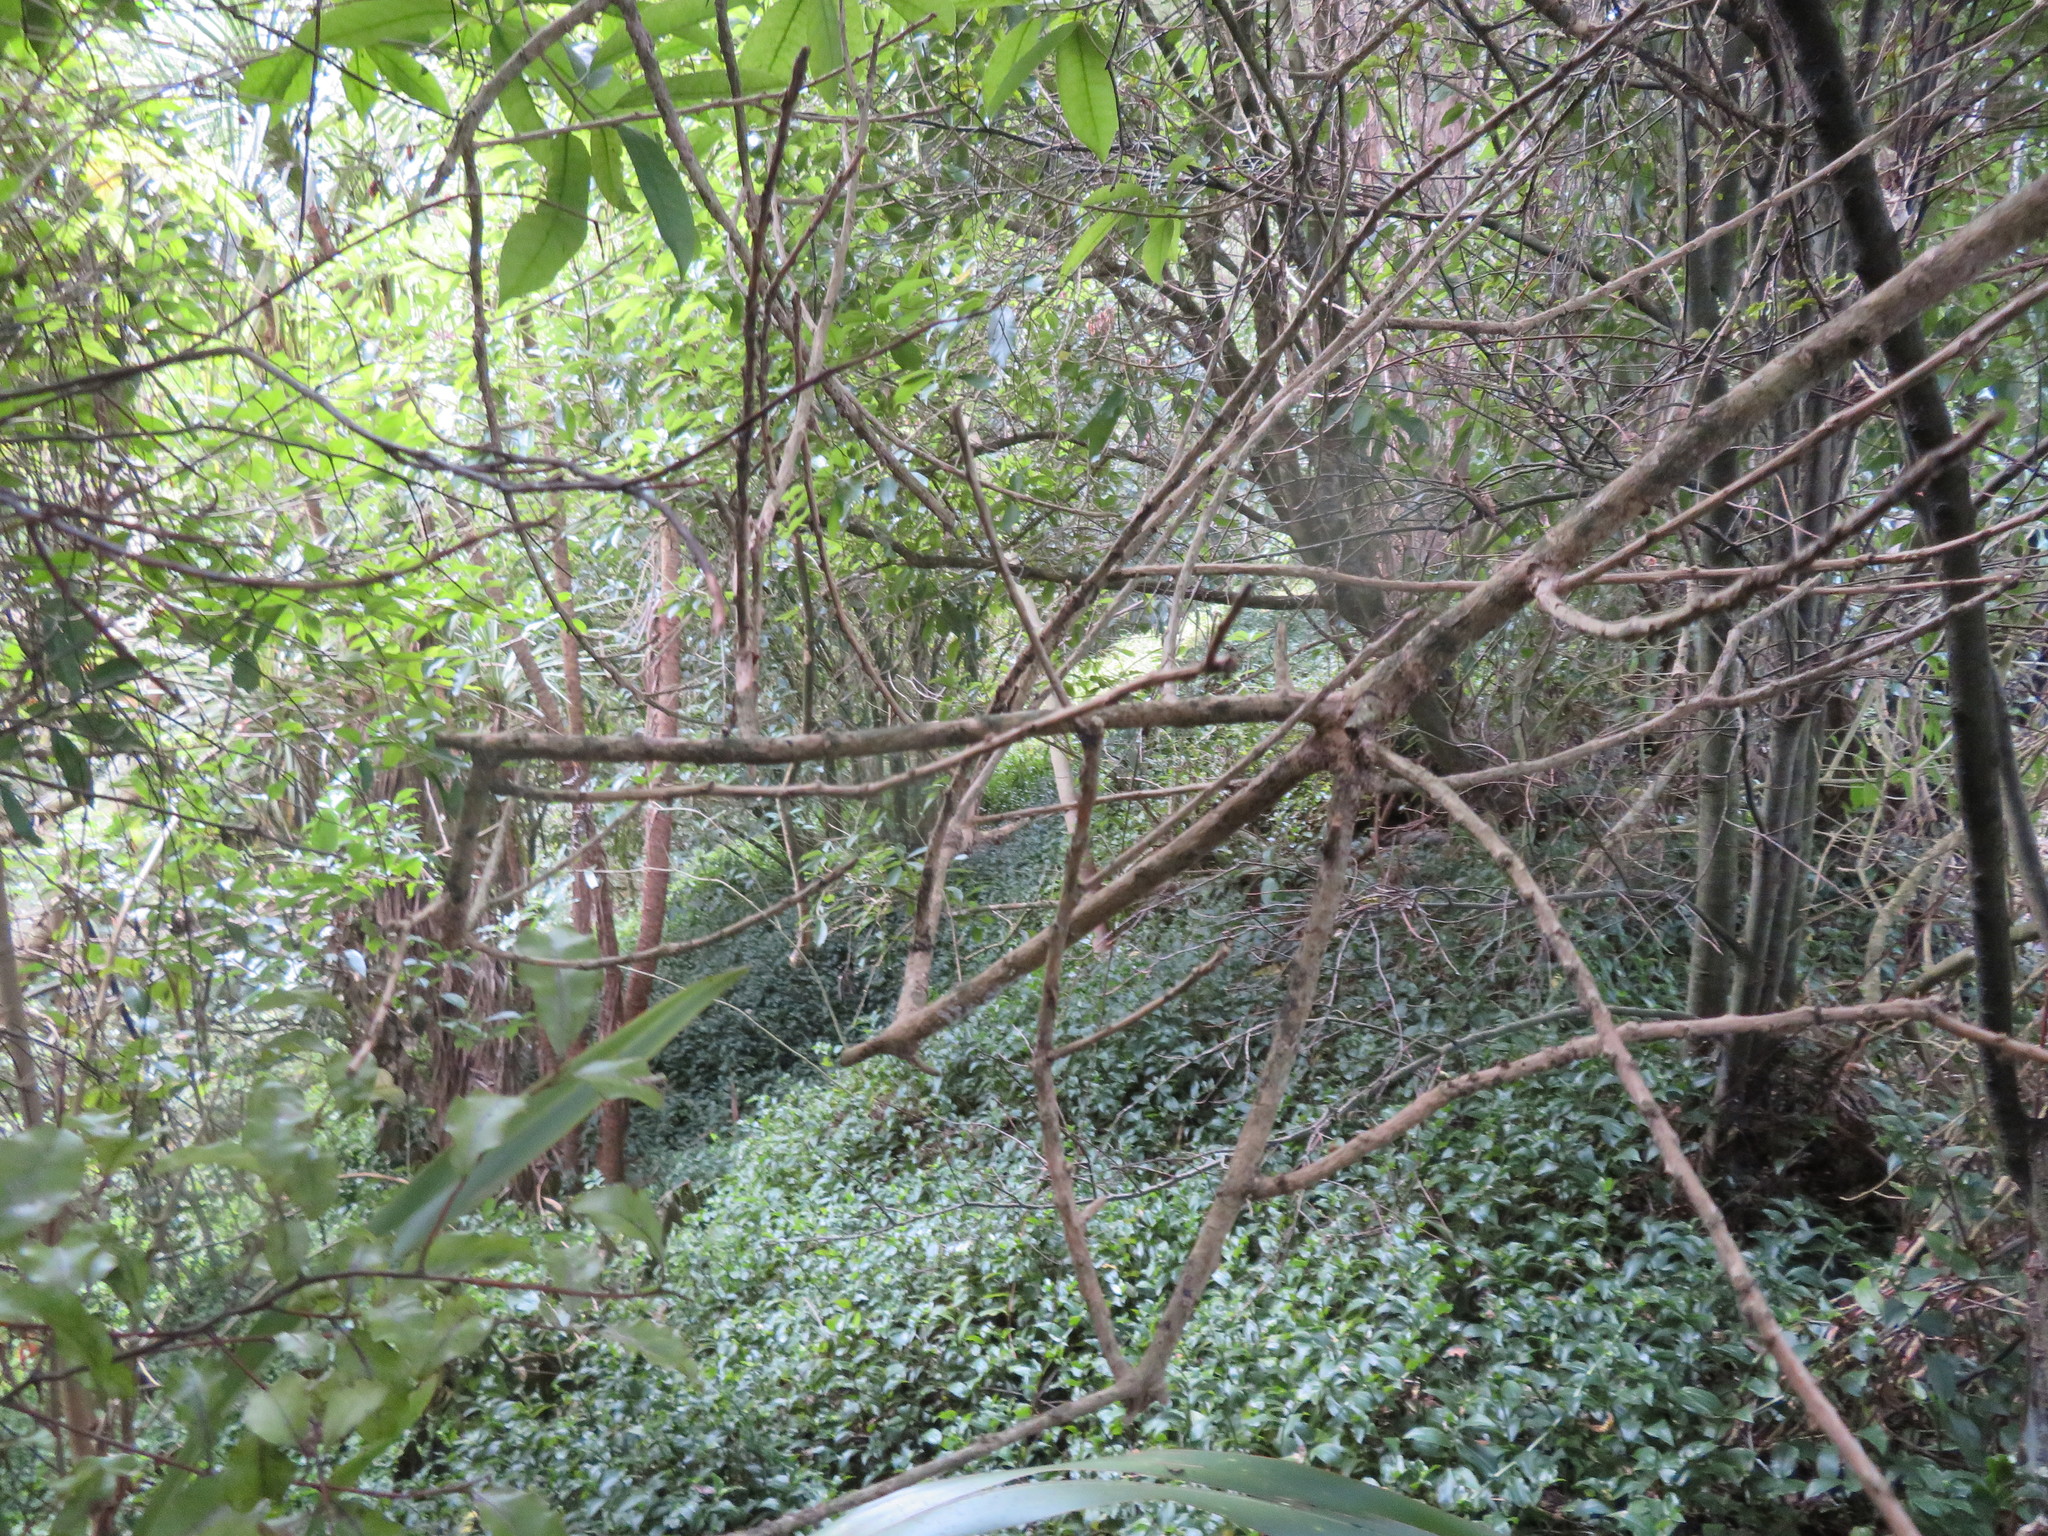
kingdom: Plantae
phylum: Tracheophyta
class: Liliopsida
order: Commelinales
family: Commelinaceae
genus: Tradescantia
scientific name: Tradescantia fluminensis
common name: Wandering-jew
